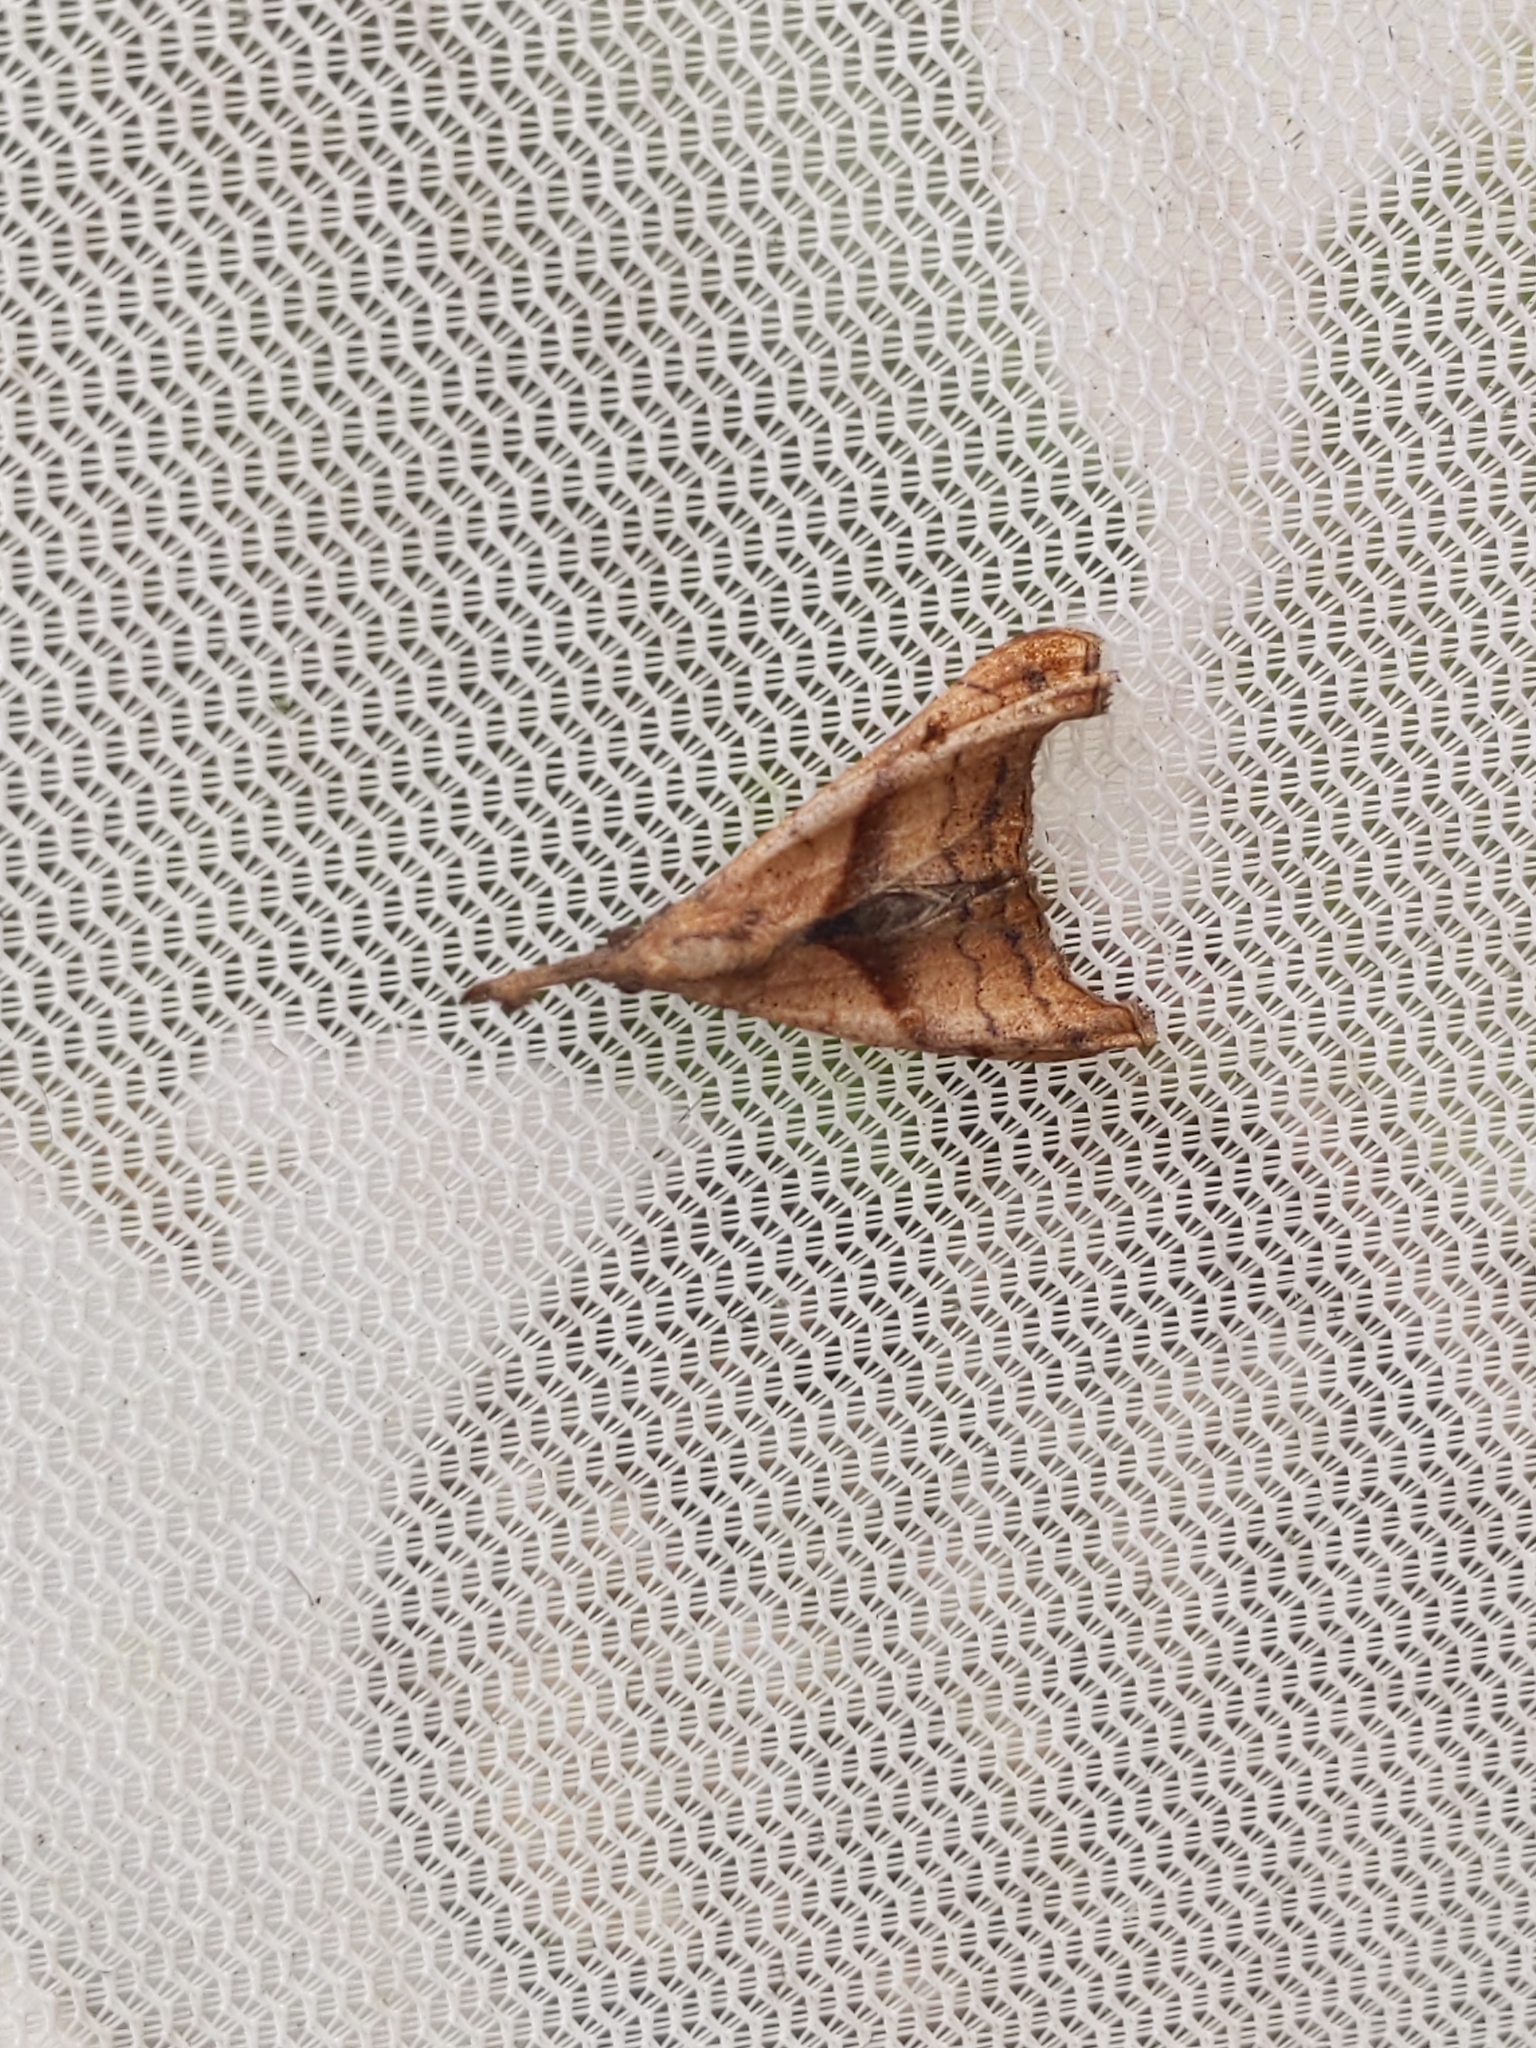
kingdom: Animalia
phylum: Arthropoda
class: Insecta
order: Lepidoptera
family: Erebidae
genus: Palthis
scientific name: Palthis angulalis
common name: Dark-spotted palthis moth
